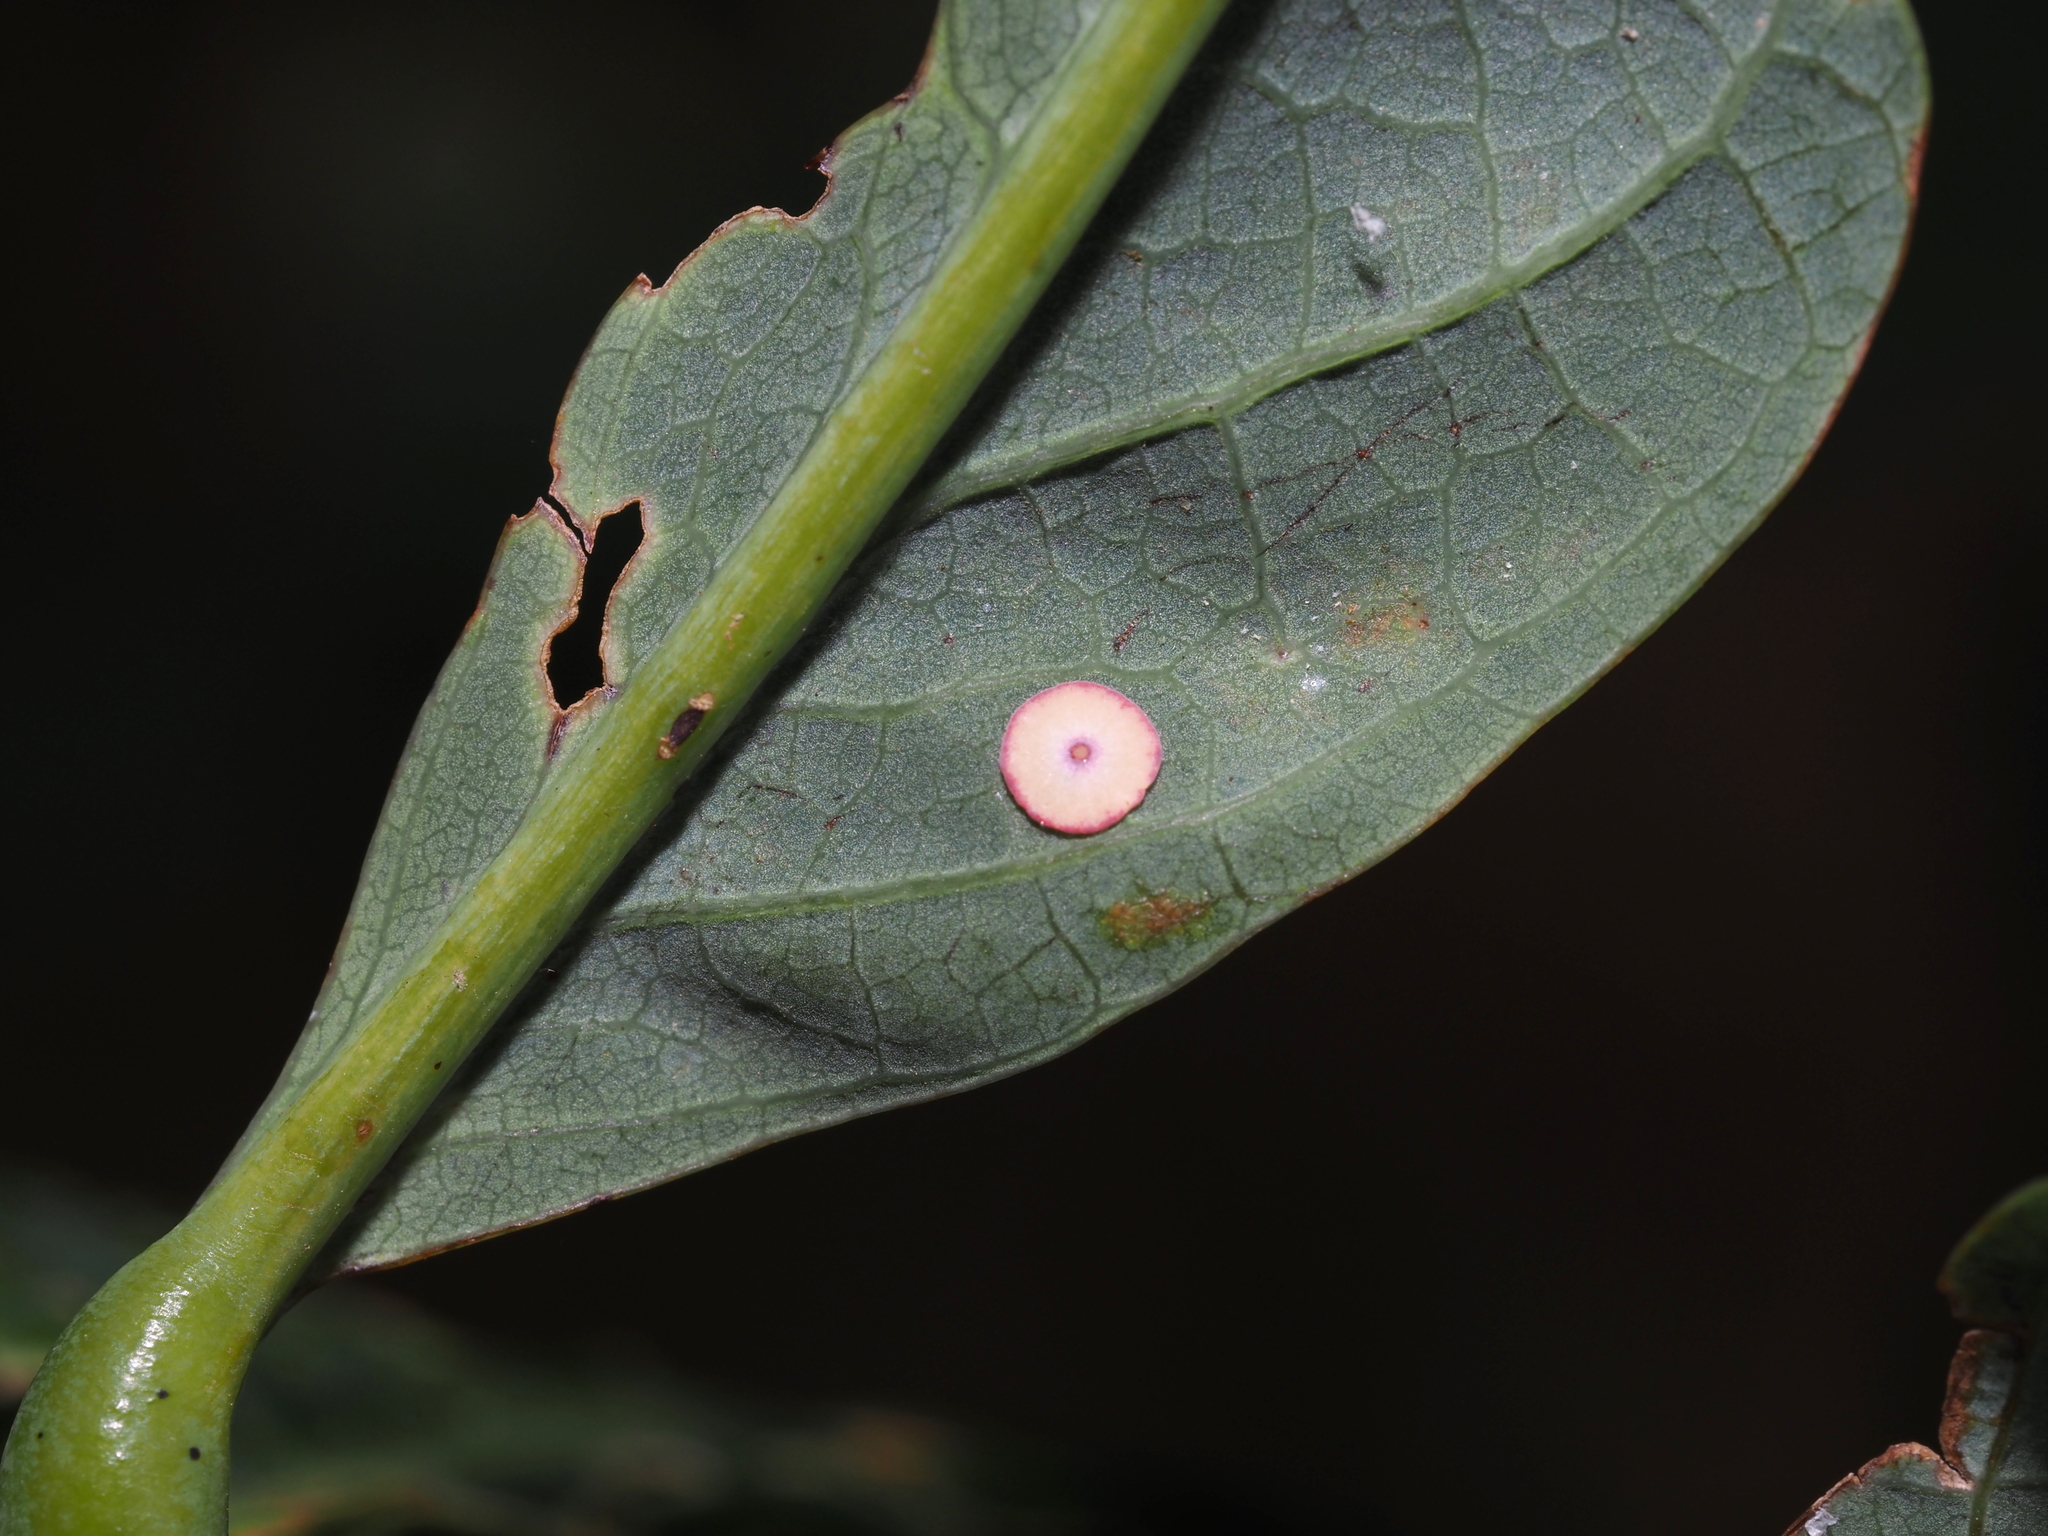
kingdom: Animalia
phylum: Arthropoda
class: Insecta
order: Hymenoptera
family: Cynipidae
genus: Phylloteras
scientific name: Phylloteras poculum
